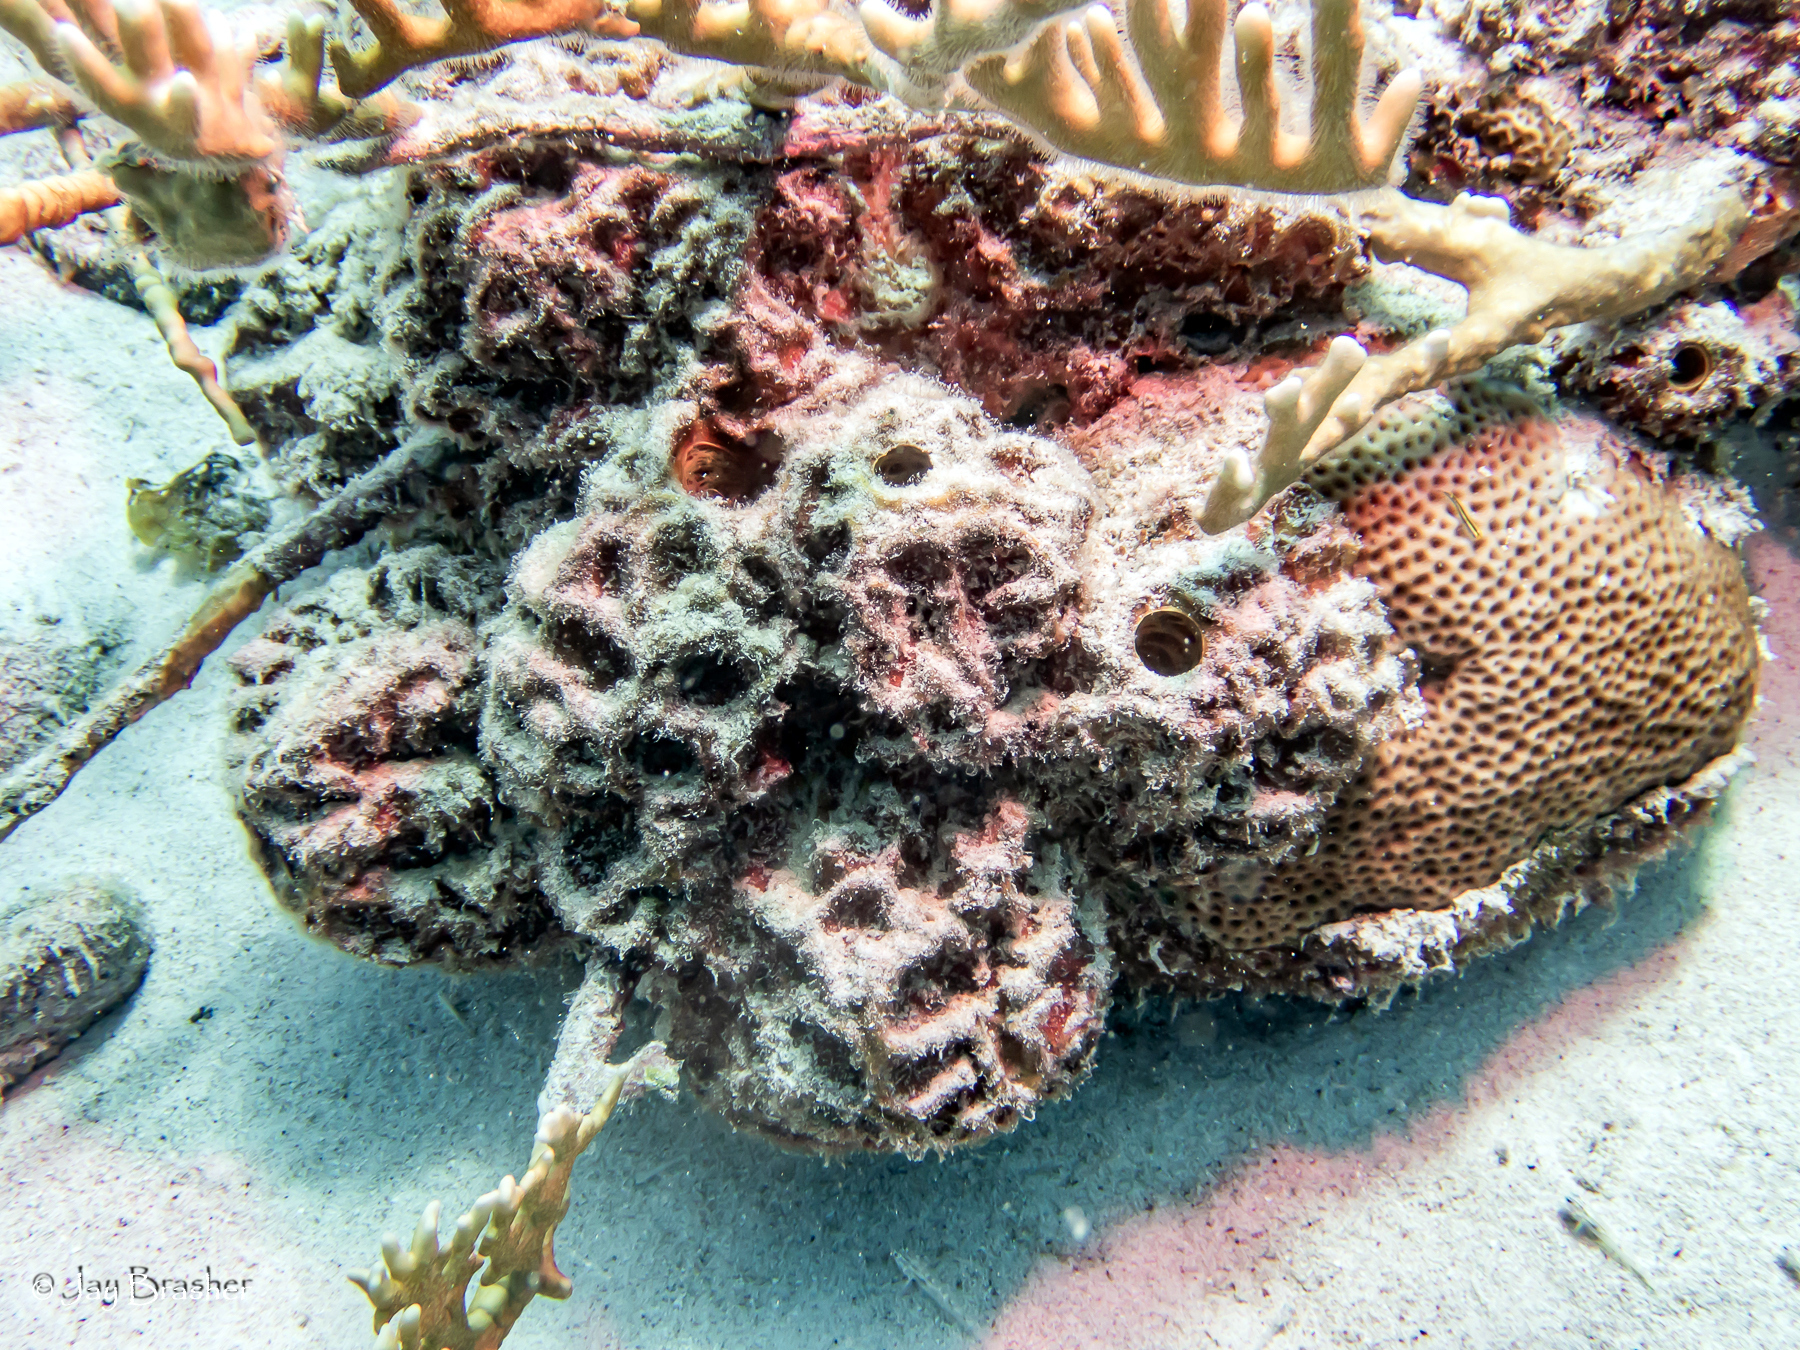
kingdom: Animalia
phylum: Cnidaria
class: Anthozoa
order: Scleractinia
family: Rhizangiidae
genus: Siderastrea
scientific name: Siderastrea siderea
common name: Massive starlet coral
